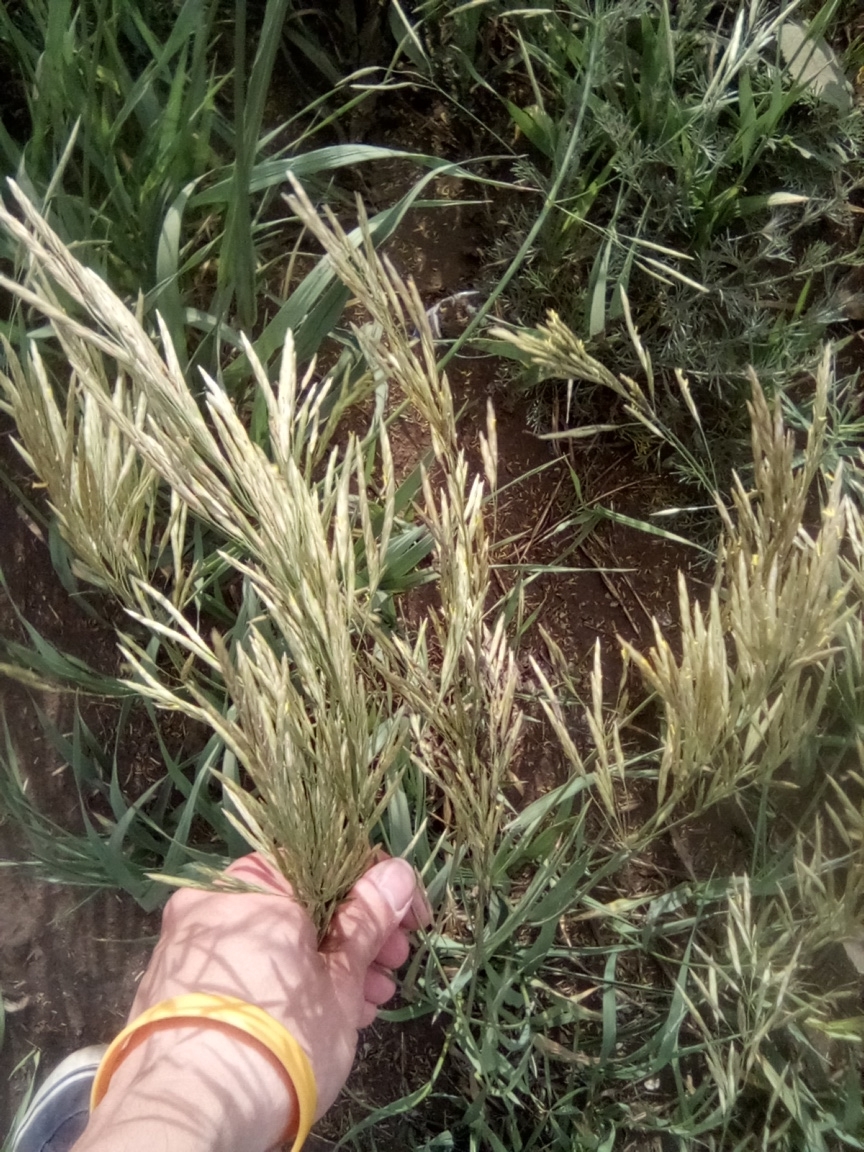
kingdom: Plantae
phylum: Tracheophyta
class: Liliopsida
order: Poales
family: Poaceae
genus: Bromus
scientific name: Bromus inermis
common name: Smooth brome
